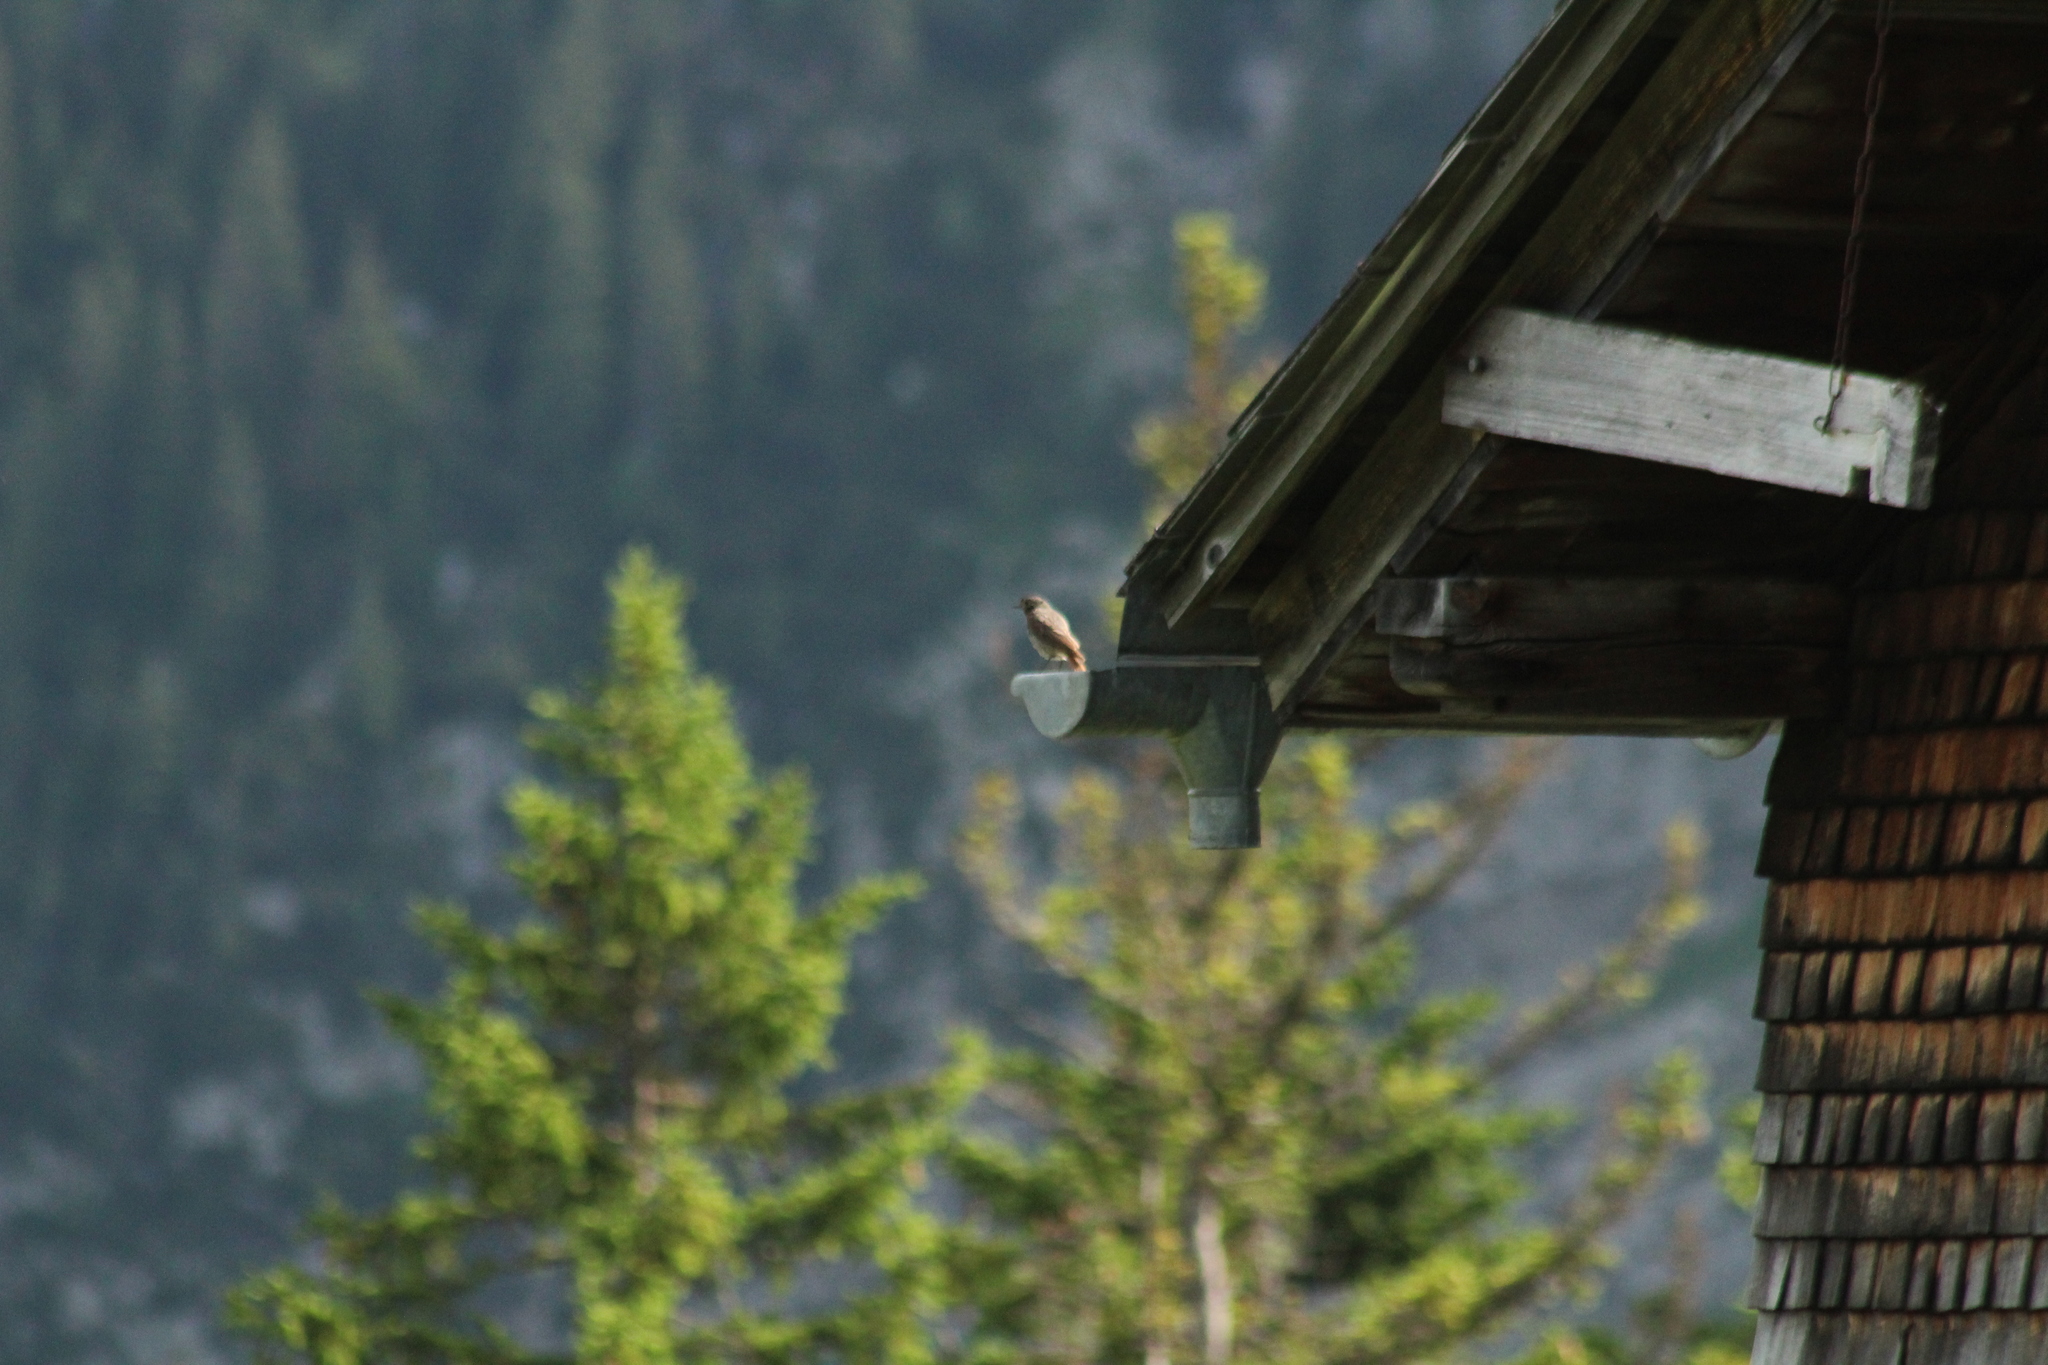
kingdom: Animalia
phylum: Chordata
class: Aves
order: Passeriformes
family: Muscicapidae
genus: Phoenicurus
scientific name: Phoenicurus ochruros
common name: Black redstart
